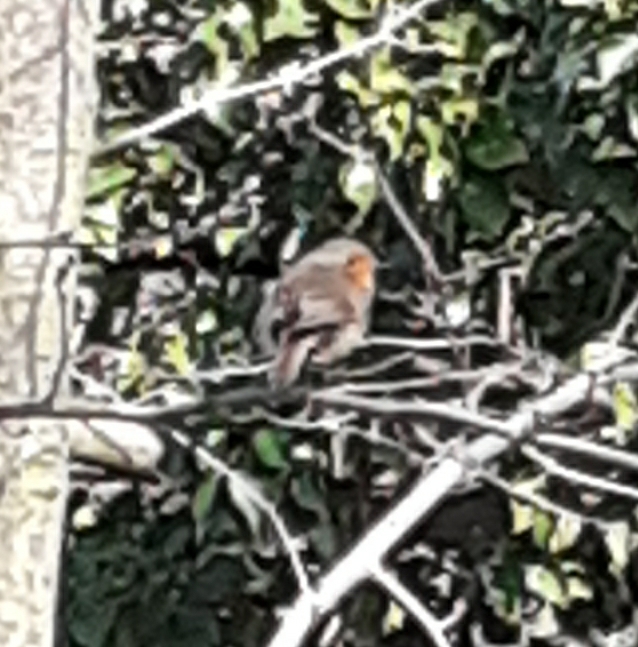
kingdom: Animalia
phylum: Chordata
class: Aves
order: Passeriformes
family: Muscicapidae
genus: Erithacus
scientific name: Erithacus rubecula
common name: European robin
